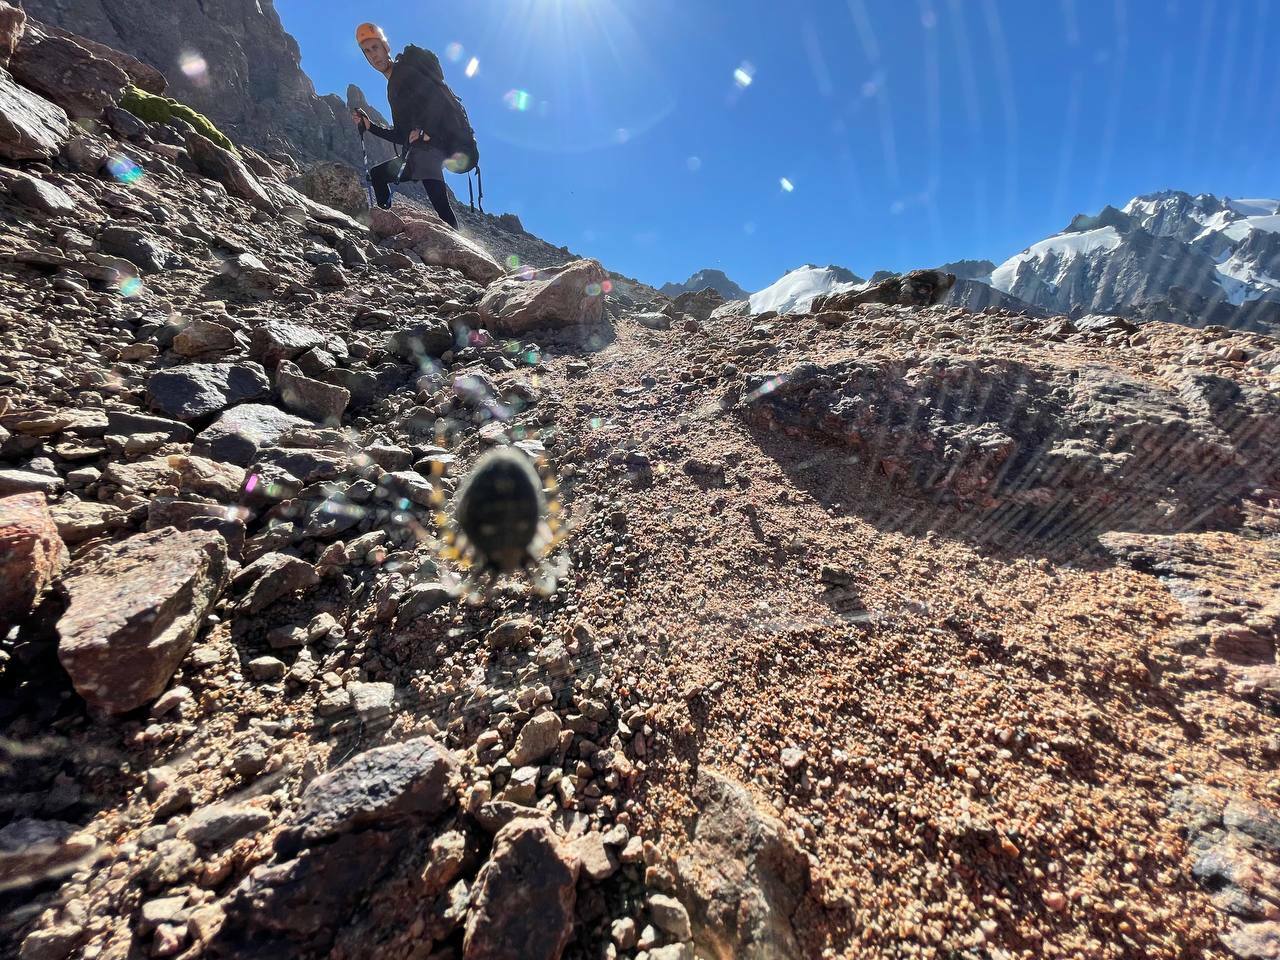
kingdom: Animalia
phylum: Arthropoda
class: Arachnida
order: Araneae
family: Araneidae
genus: Aculepeira
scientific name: Aculepeira carbonaria
